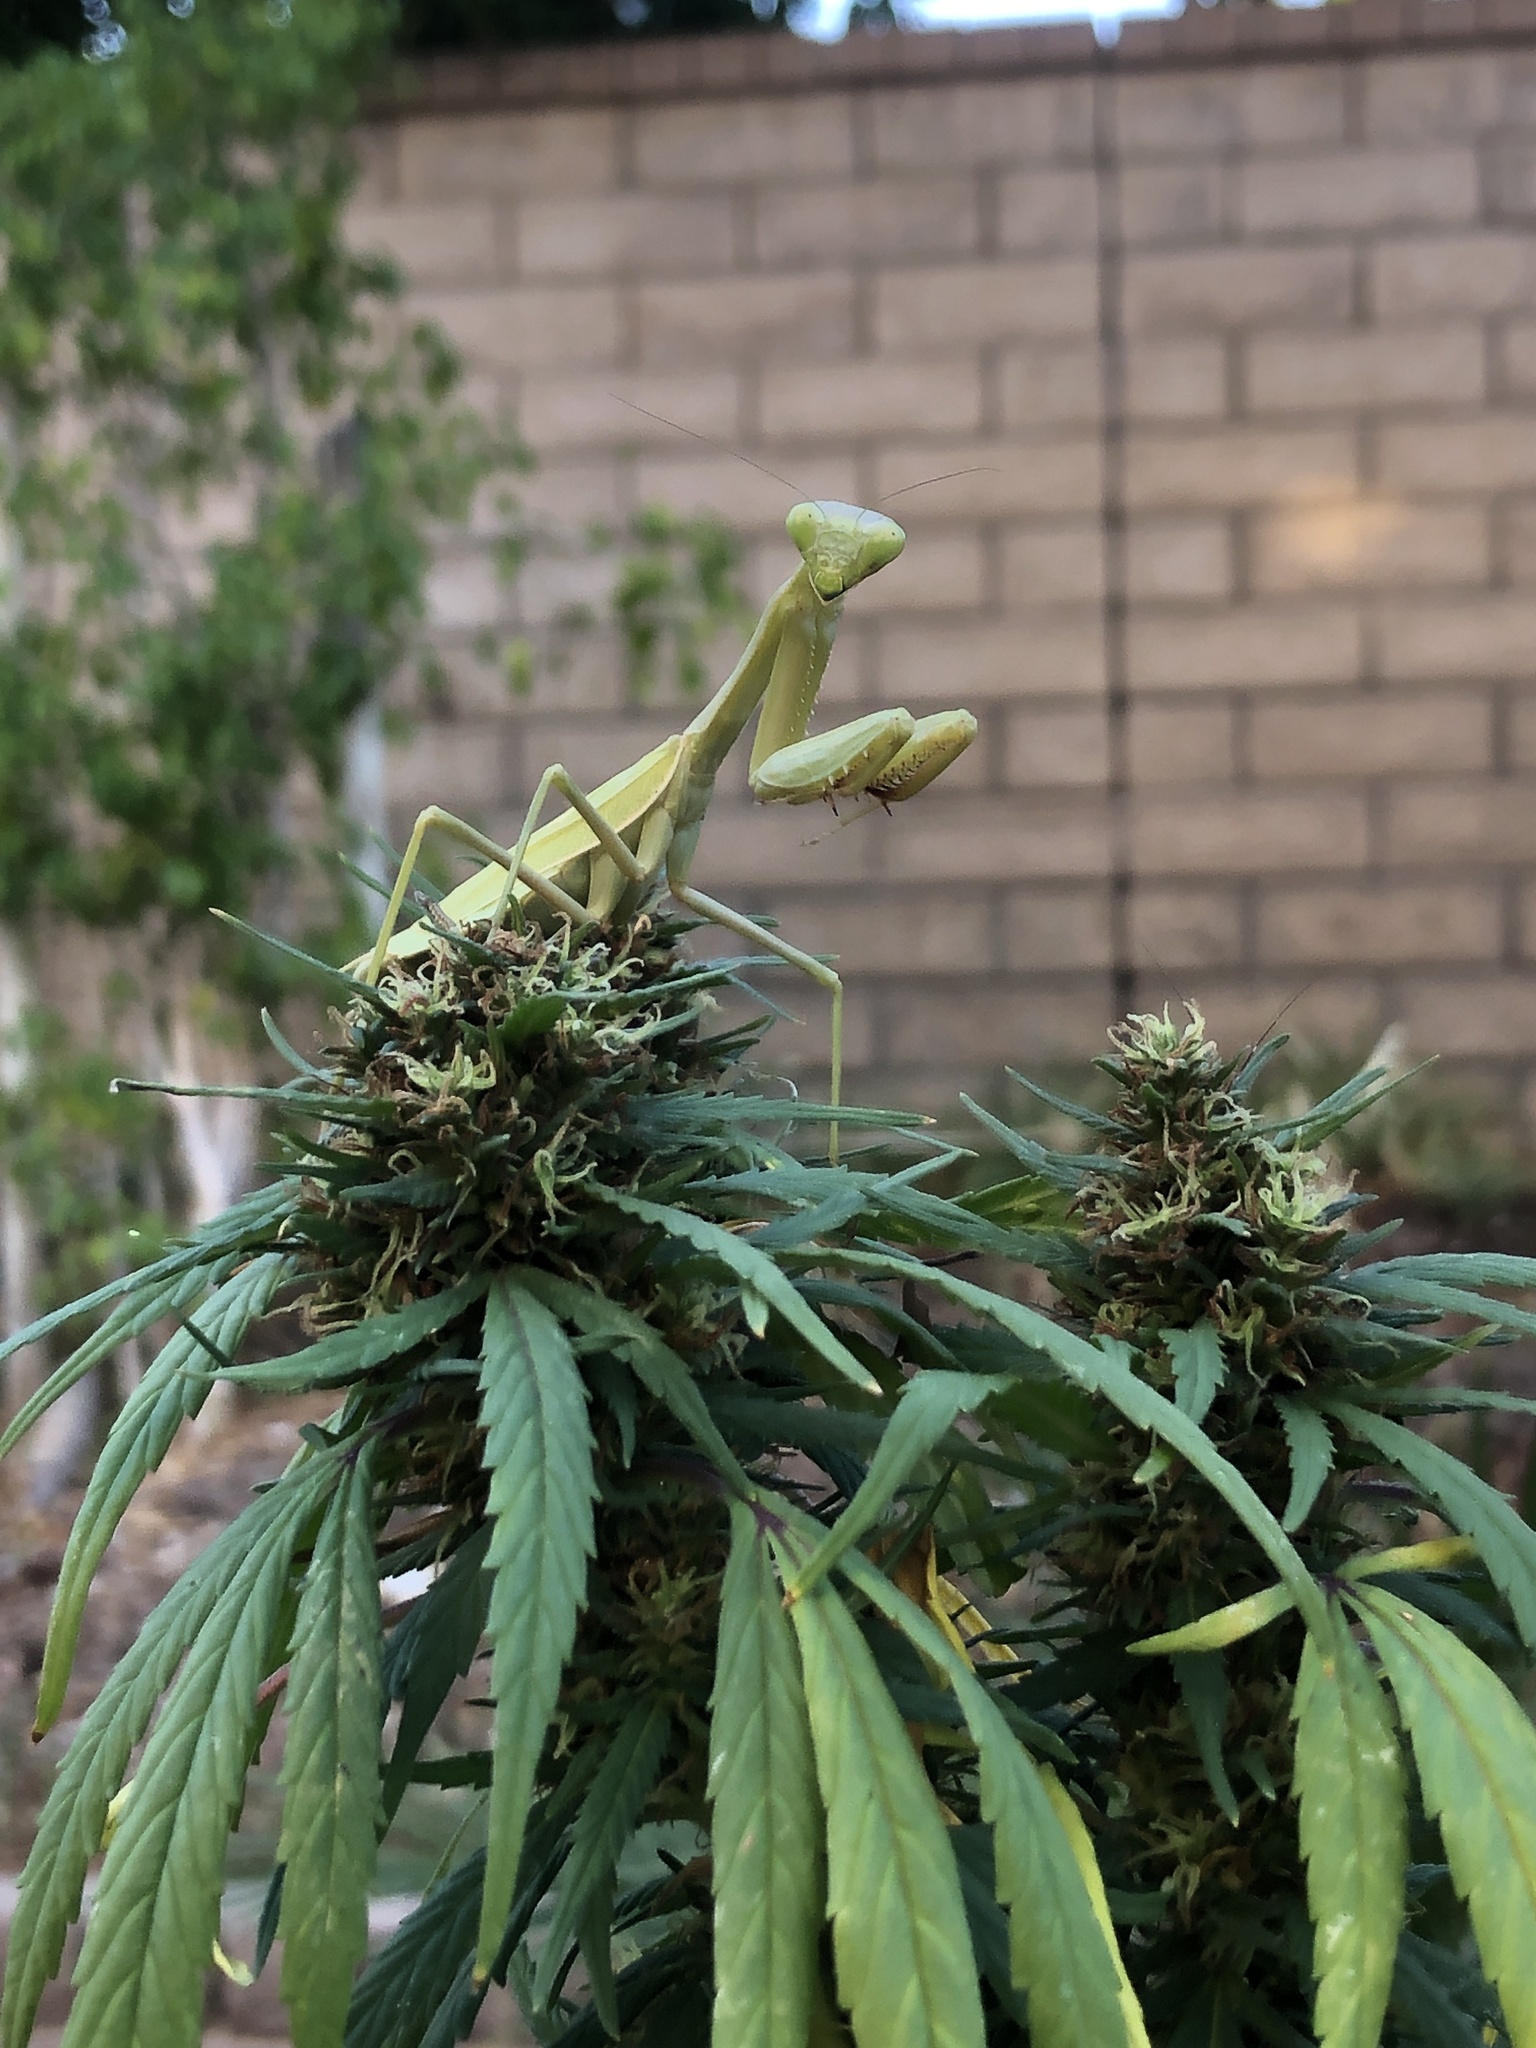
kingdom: Animalia
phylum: Arthropoda
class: Insecta
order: Mantodea
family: Mantidae
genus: Stagmomantis
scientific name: Stagmomantis limbata
